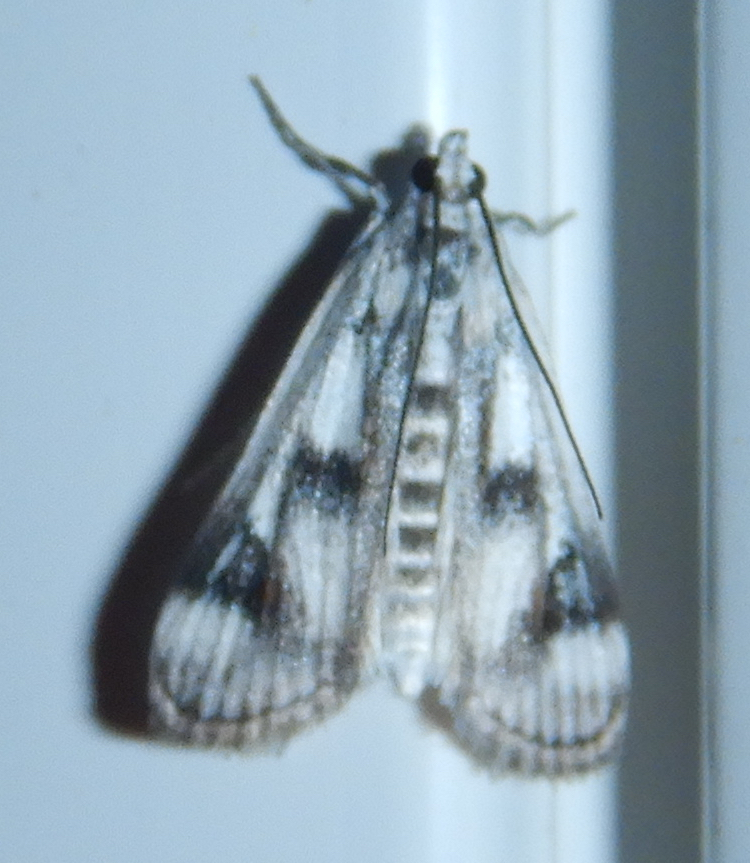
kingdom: Animalia
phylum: Arthropoda
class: Insecta
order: Lepidoptera
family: Crambidae
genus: Parapoynx
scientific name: Parapoynx maculalis
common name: Polymorphic pondweed moth
